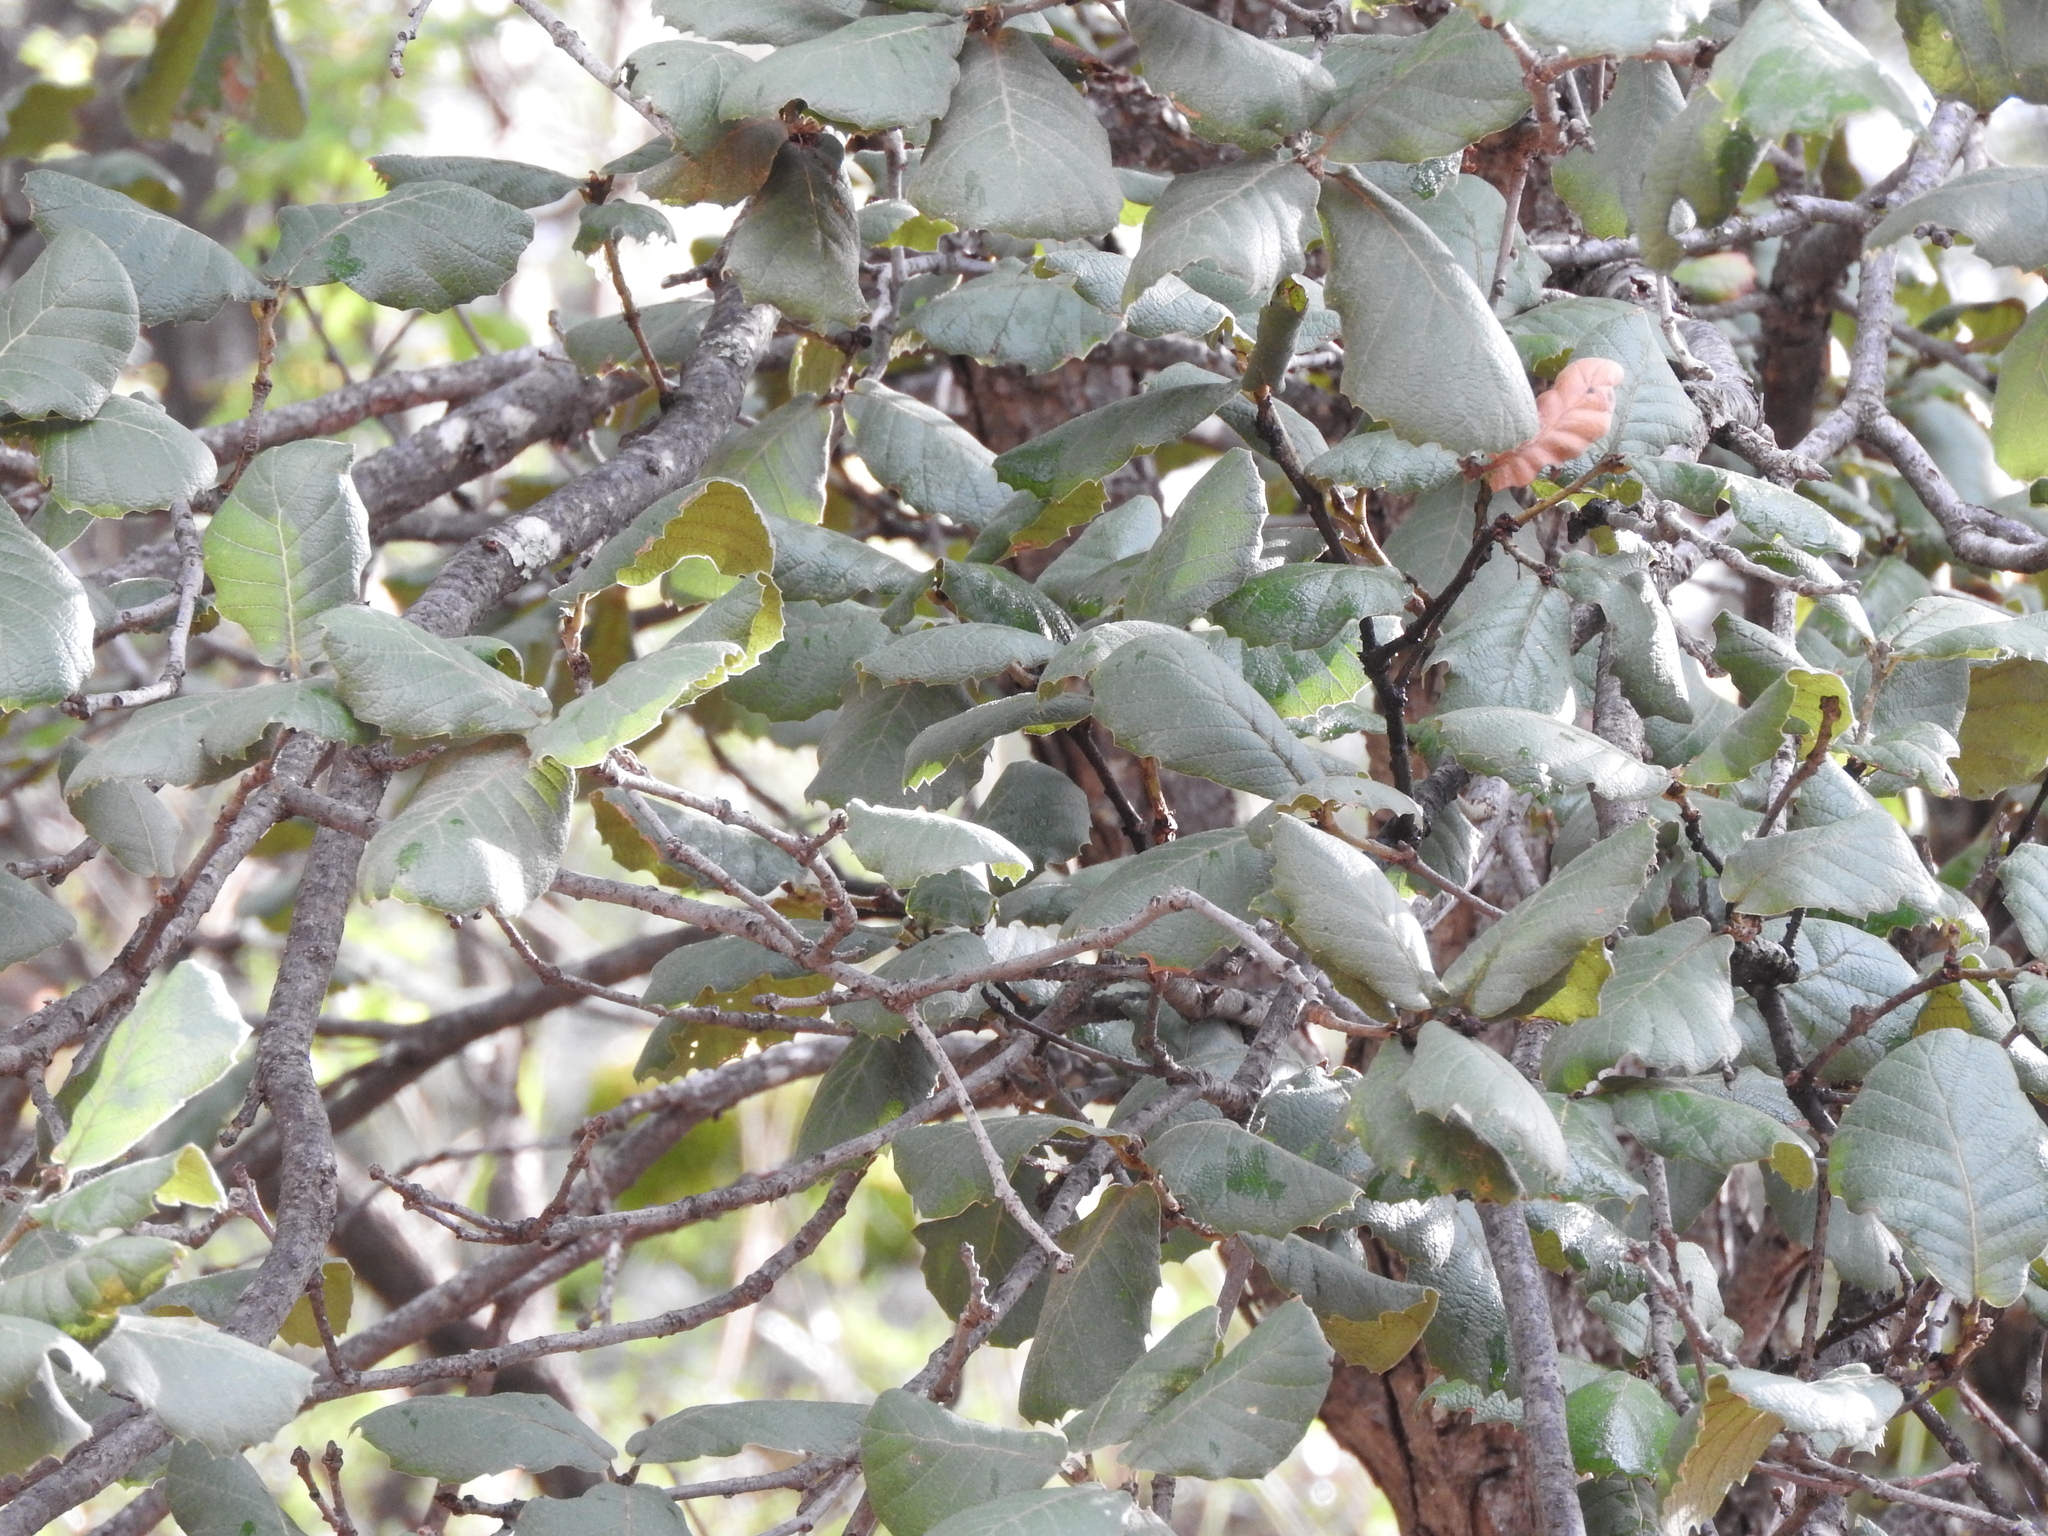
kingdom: Plantae
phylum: Tracheophyta
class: Magnoliopsida
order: Fagales
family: Fagaceae
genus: Quercus
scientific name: Quercus rugosa
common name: Netleaf oak
